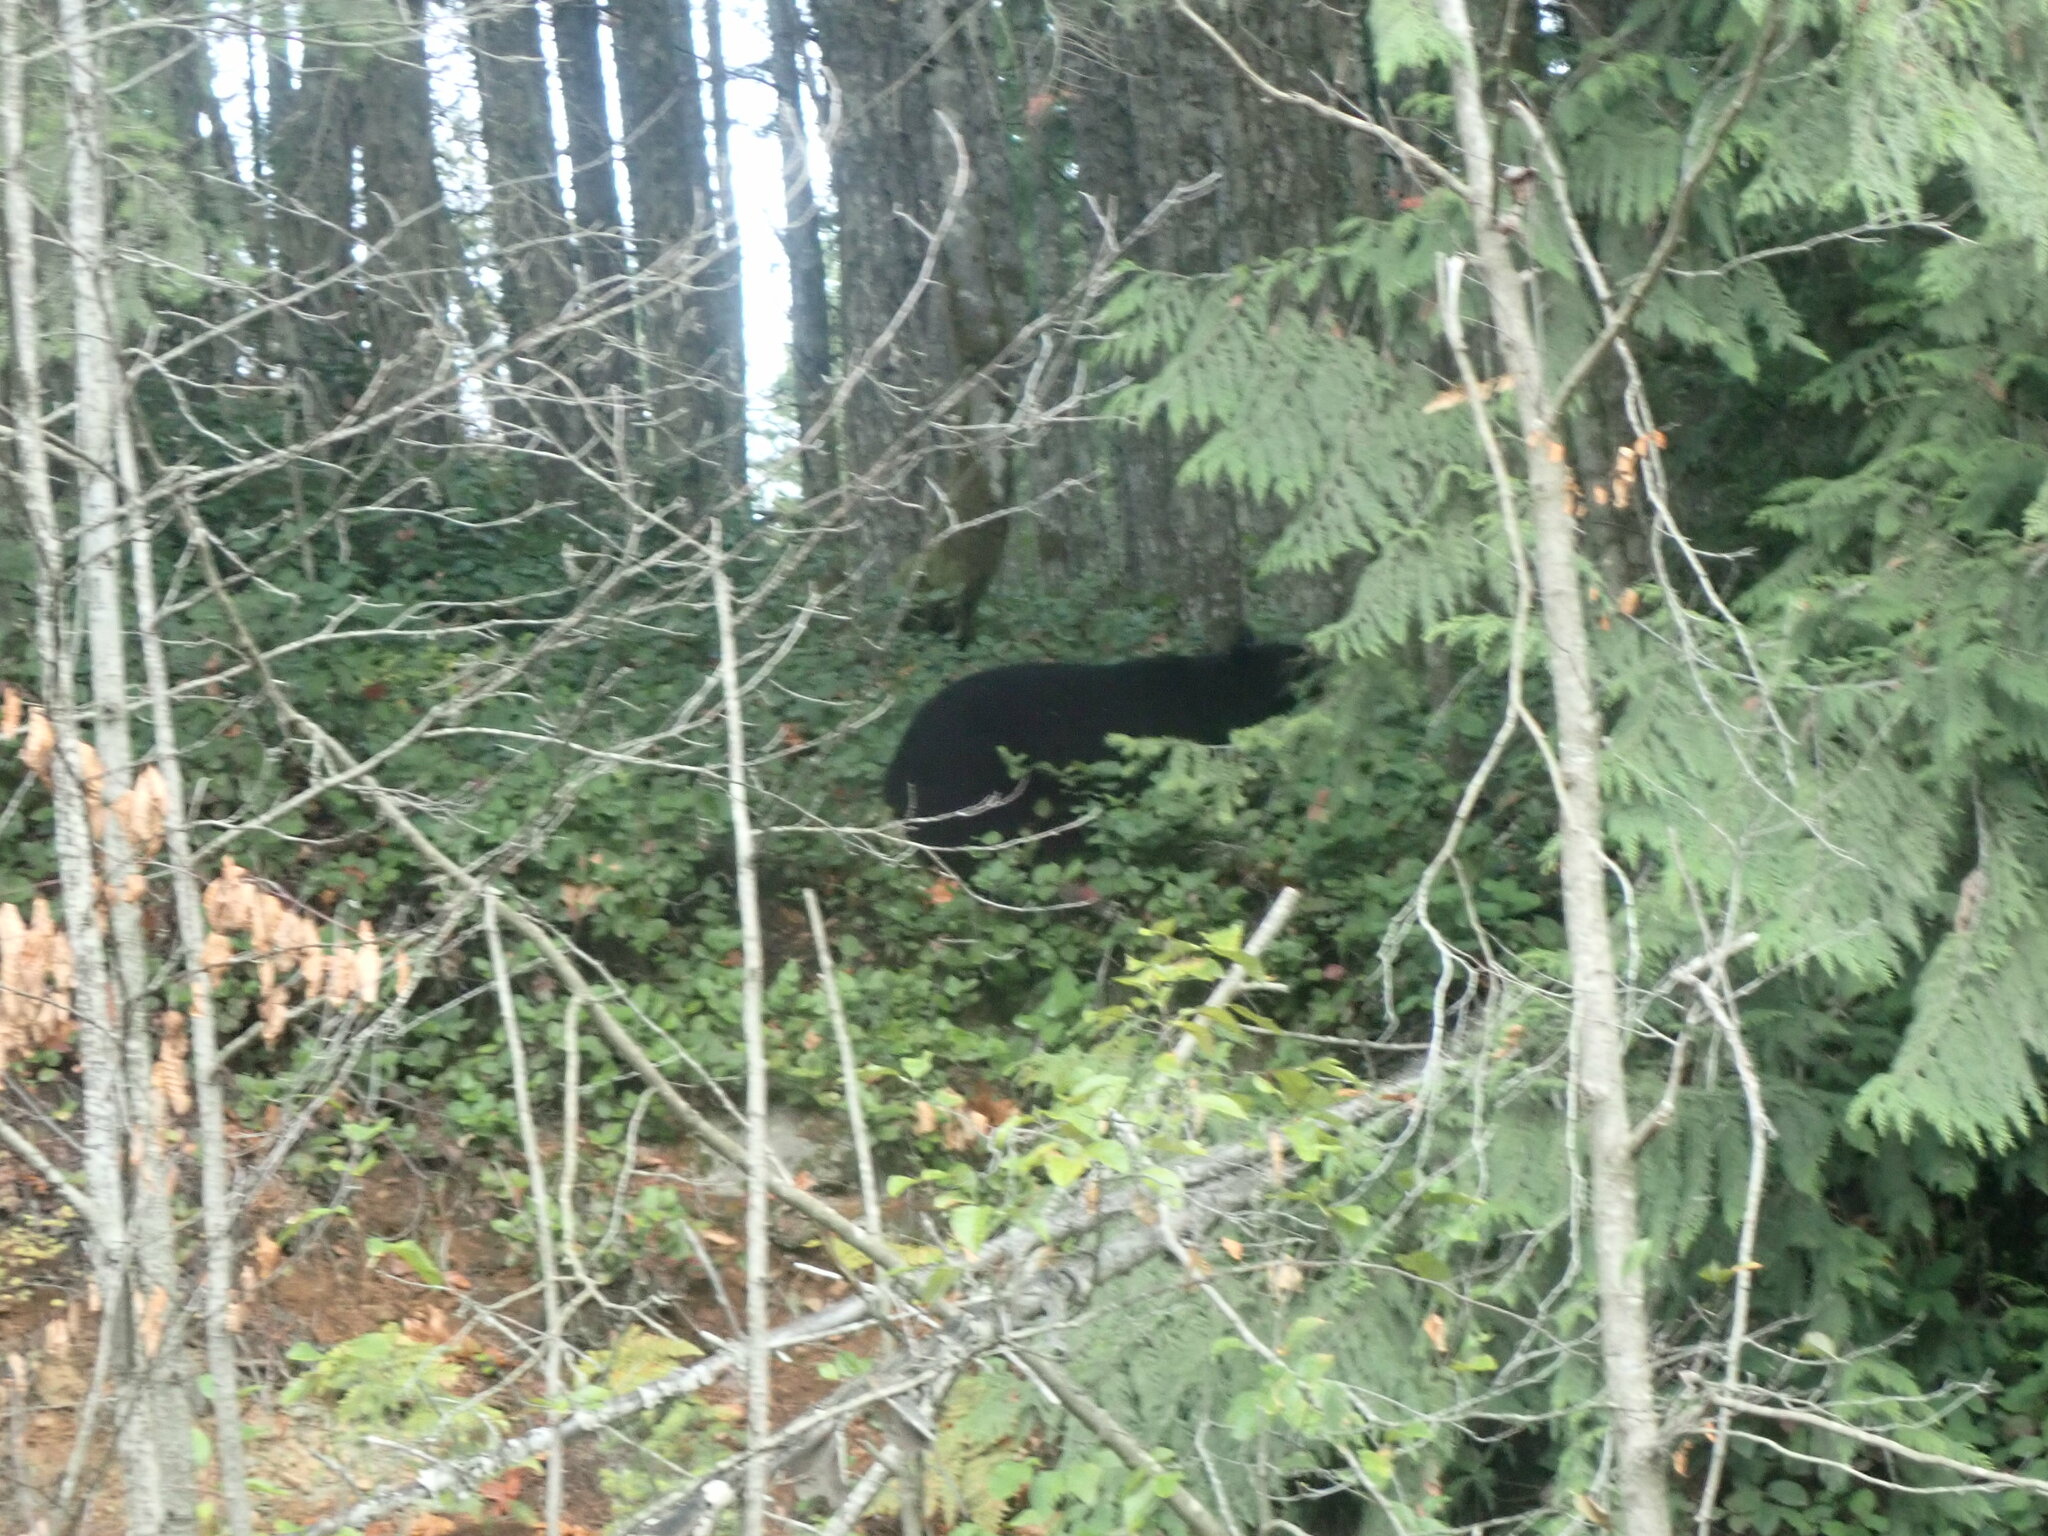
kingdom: Animalia
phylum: Chordata
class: Mammalia
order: Carnivora
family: Ursidae
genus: Ursus
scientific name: Ursus americanus
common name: American black bear
